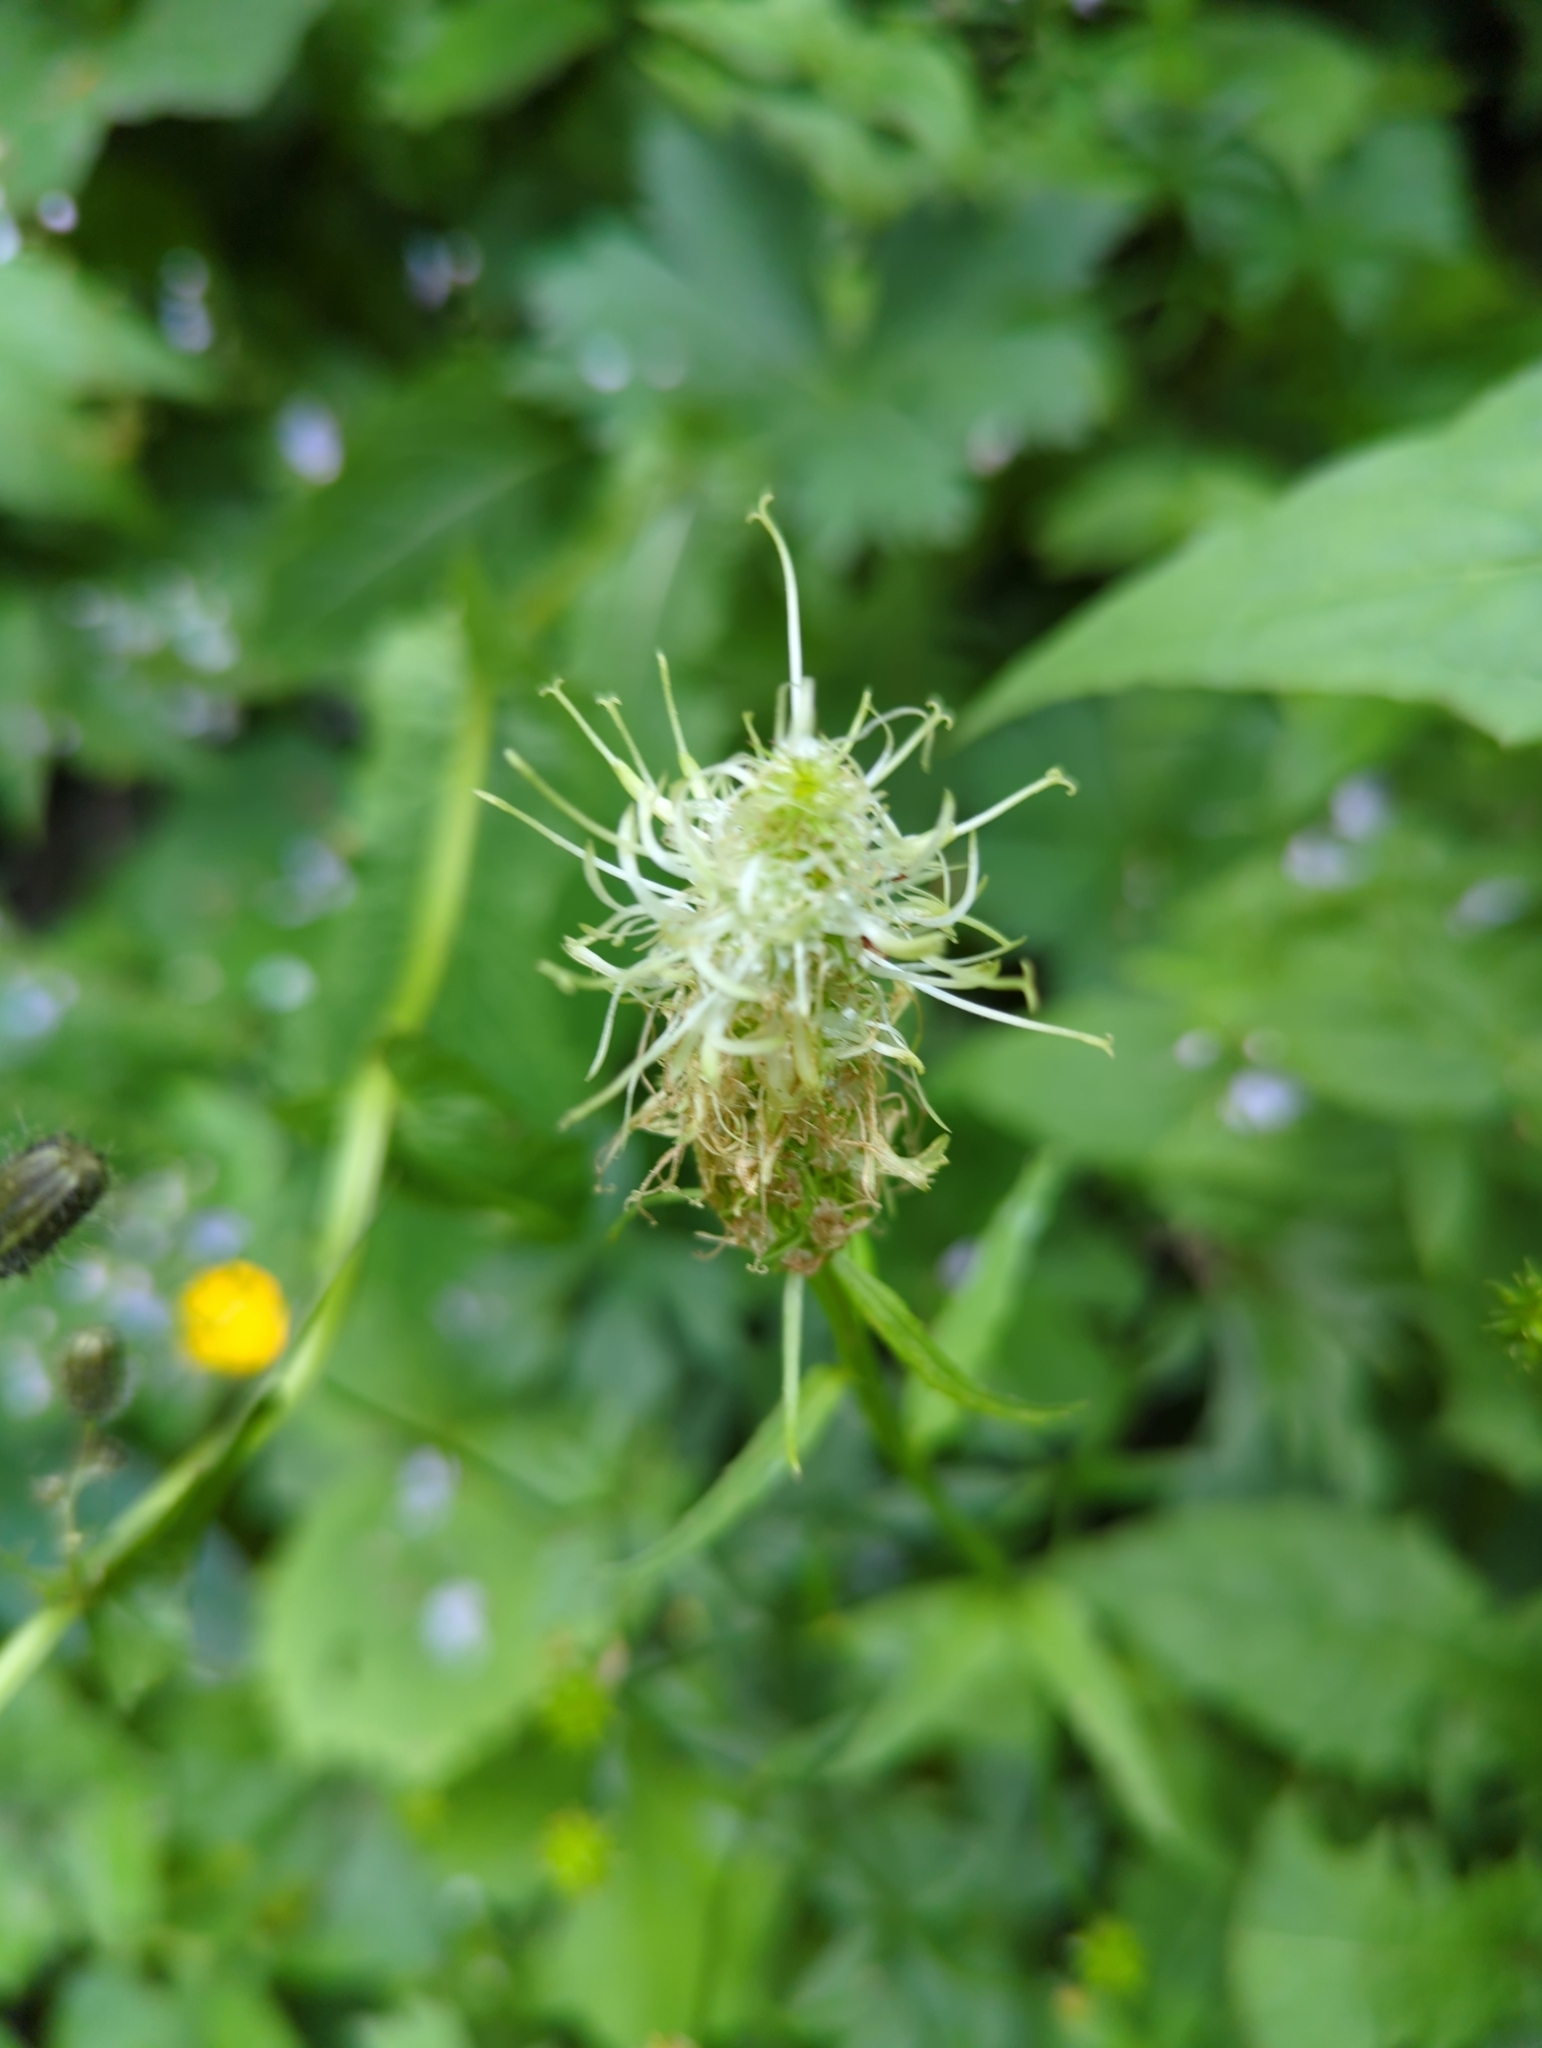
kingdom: Plantae
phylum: Tracheophyta
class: Magnoliopsida
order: Asterales
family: Campanulaceae
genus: Phyteuma
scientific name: Phyteuma spicatum
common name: Spiked rampion
